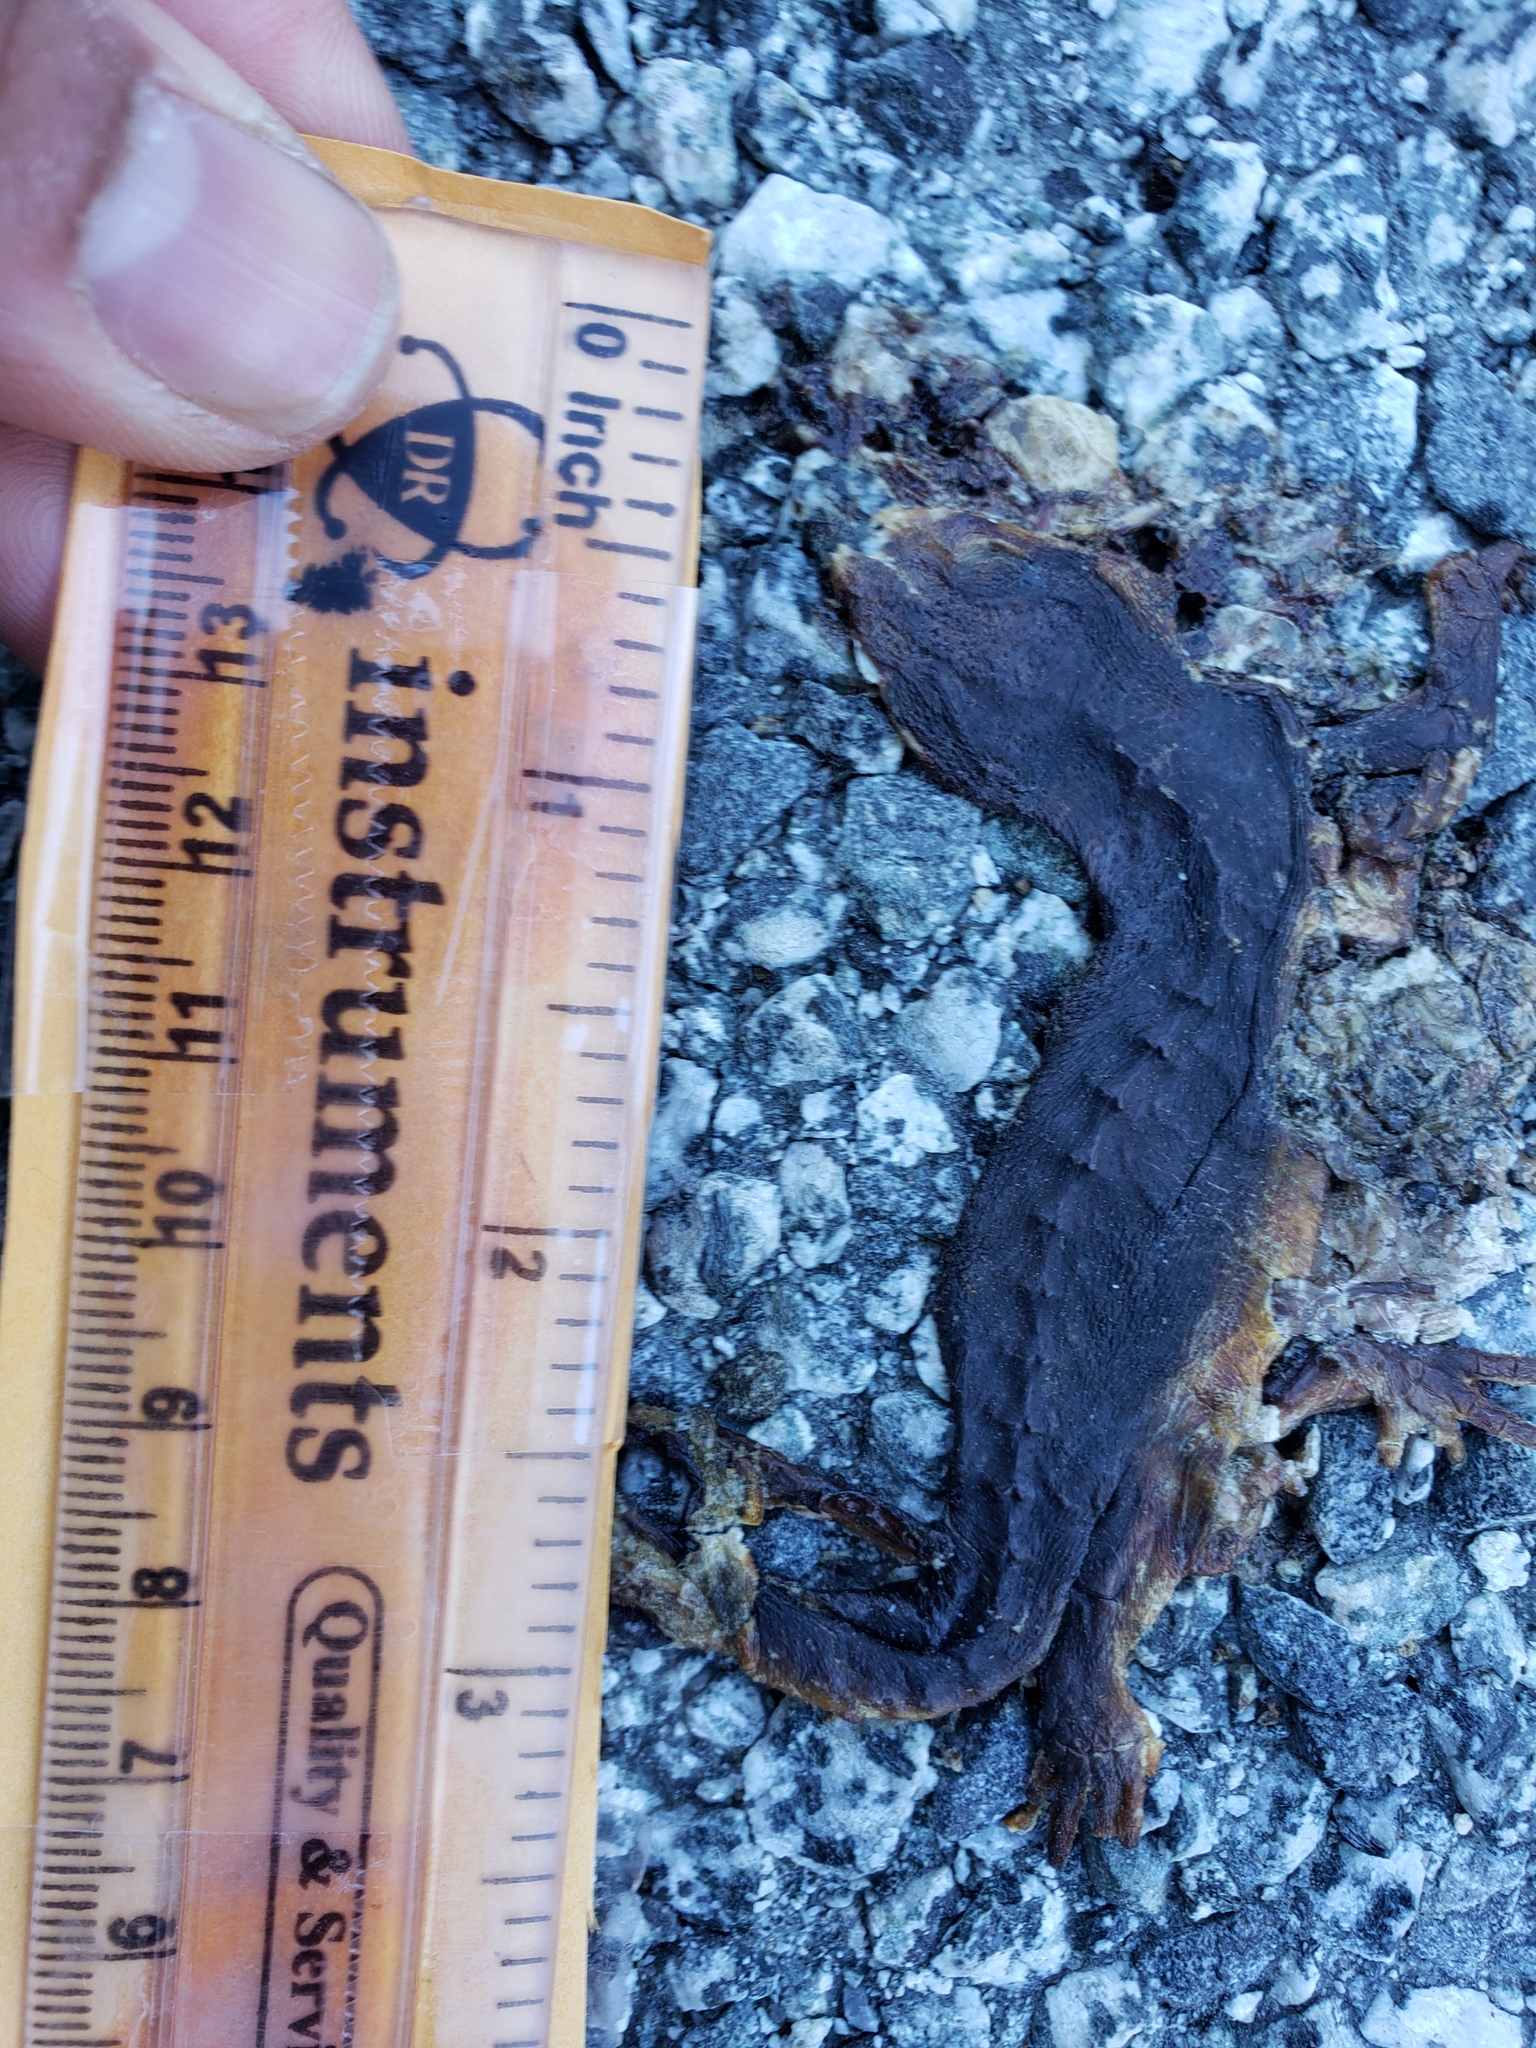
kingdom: Animalia
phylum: Chordata
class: Amphibia
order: Caudata
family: Salamandridae
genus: Taricha
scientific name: Taricha
